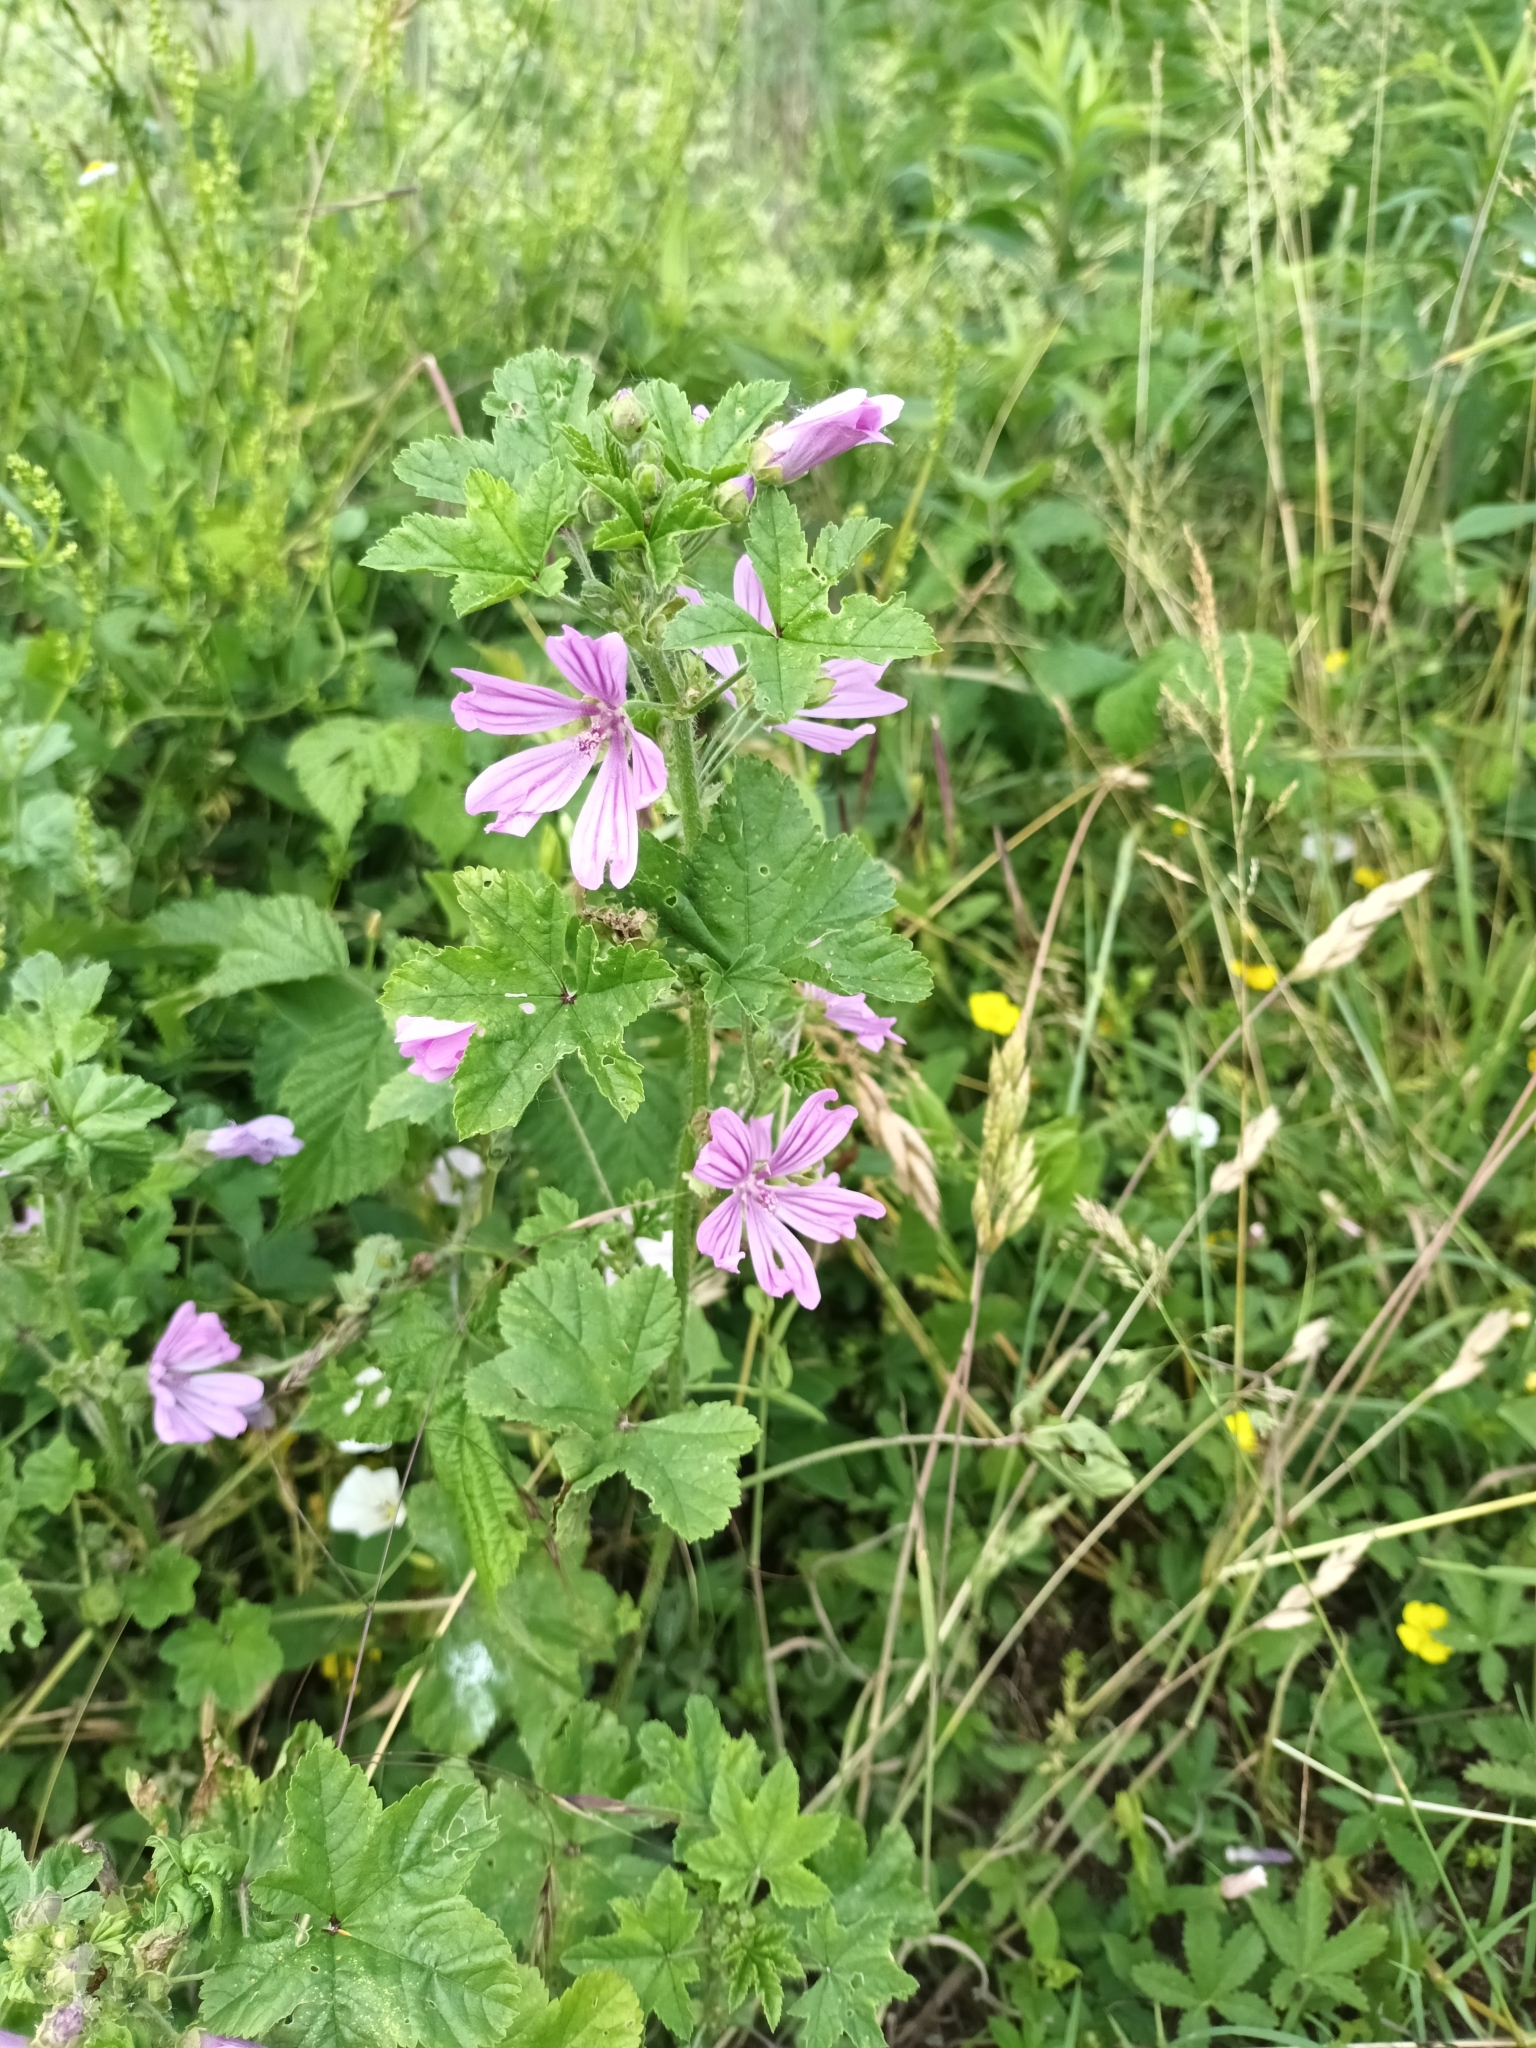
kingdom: Plantae
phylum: Tracheophyta
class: Magnoliopsida
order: Malvales
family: Malvaceae
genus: Malva
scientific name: Malva sylvestris
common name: Common mallow
